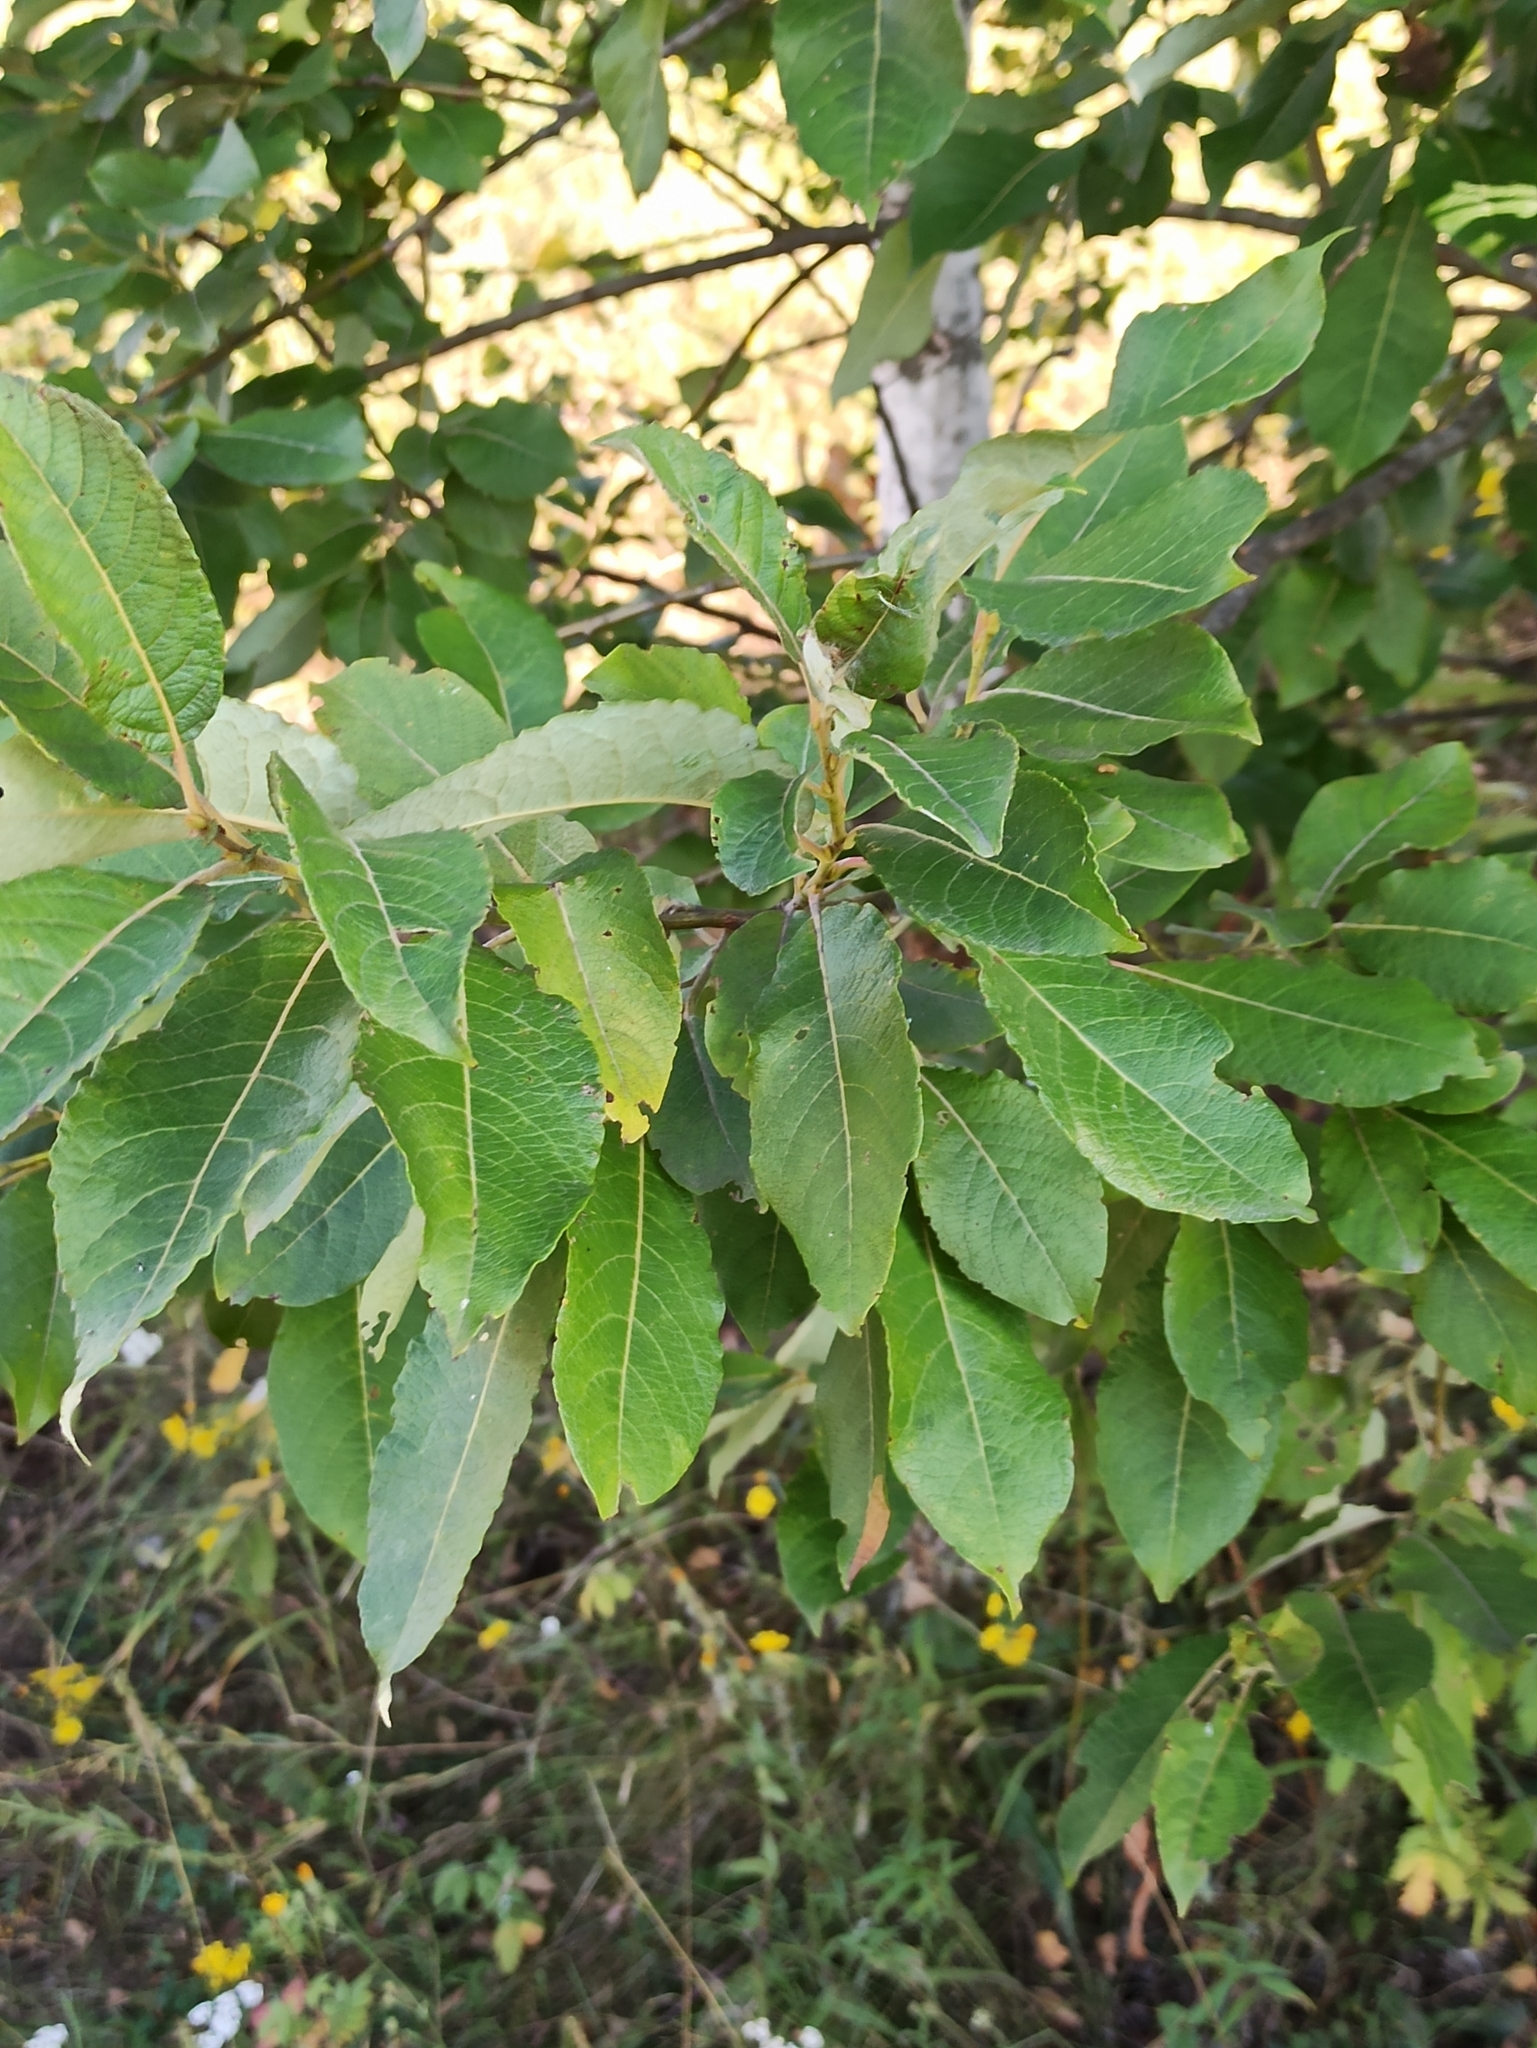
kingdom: Plantae
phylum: Tracheophyta
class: Magnoliopsida
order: Malpighiales
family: Salicaceae
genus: Salix
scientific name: Salix caprea
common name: Goat willow
